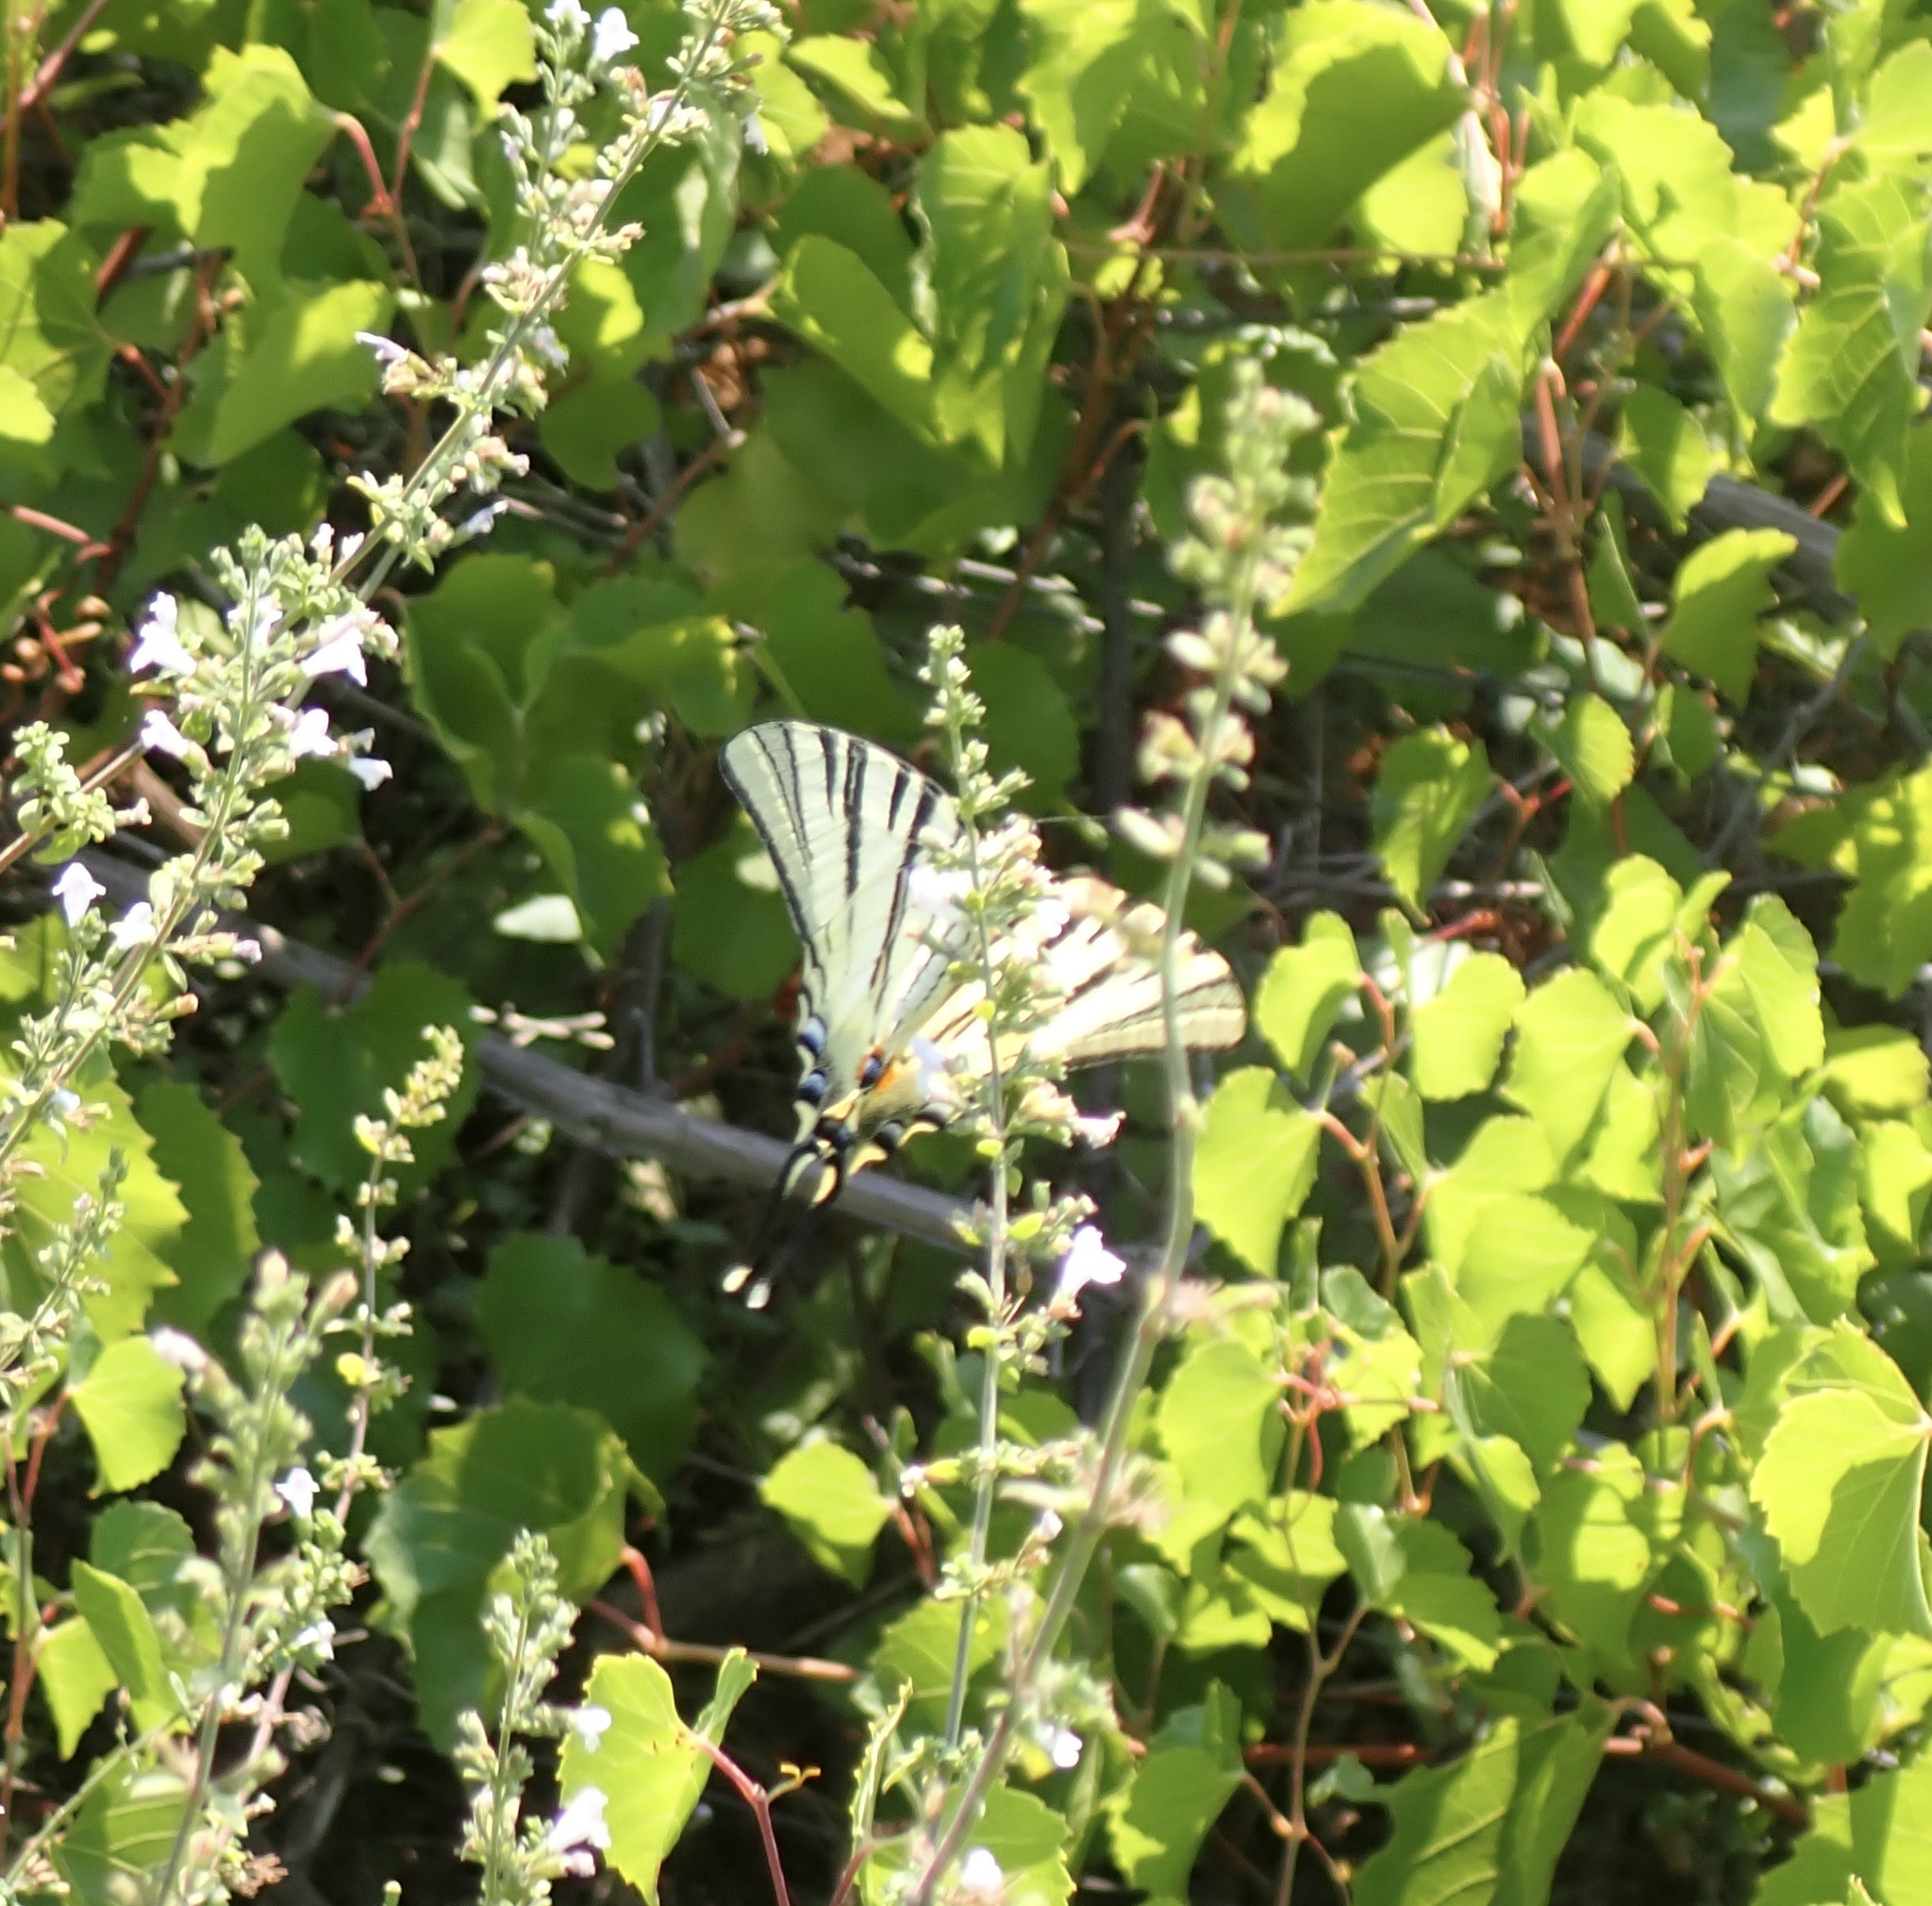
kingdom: Animalia
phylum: Arthropoda
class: Insecta
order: Lepidoptera
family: Papilionidae
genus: Iphiclides
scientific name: Iphiclides podalirius
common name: Scarce swallowtail
